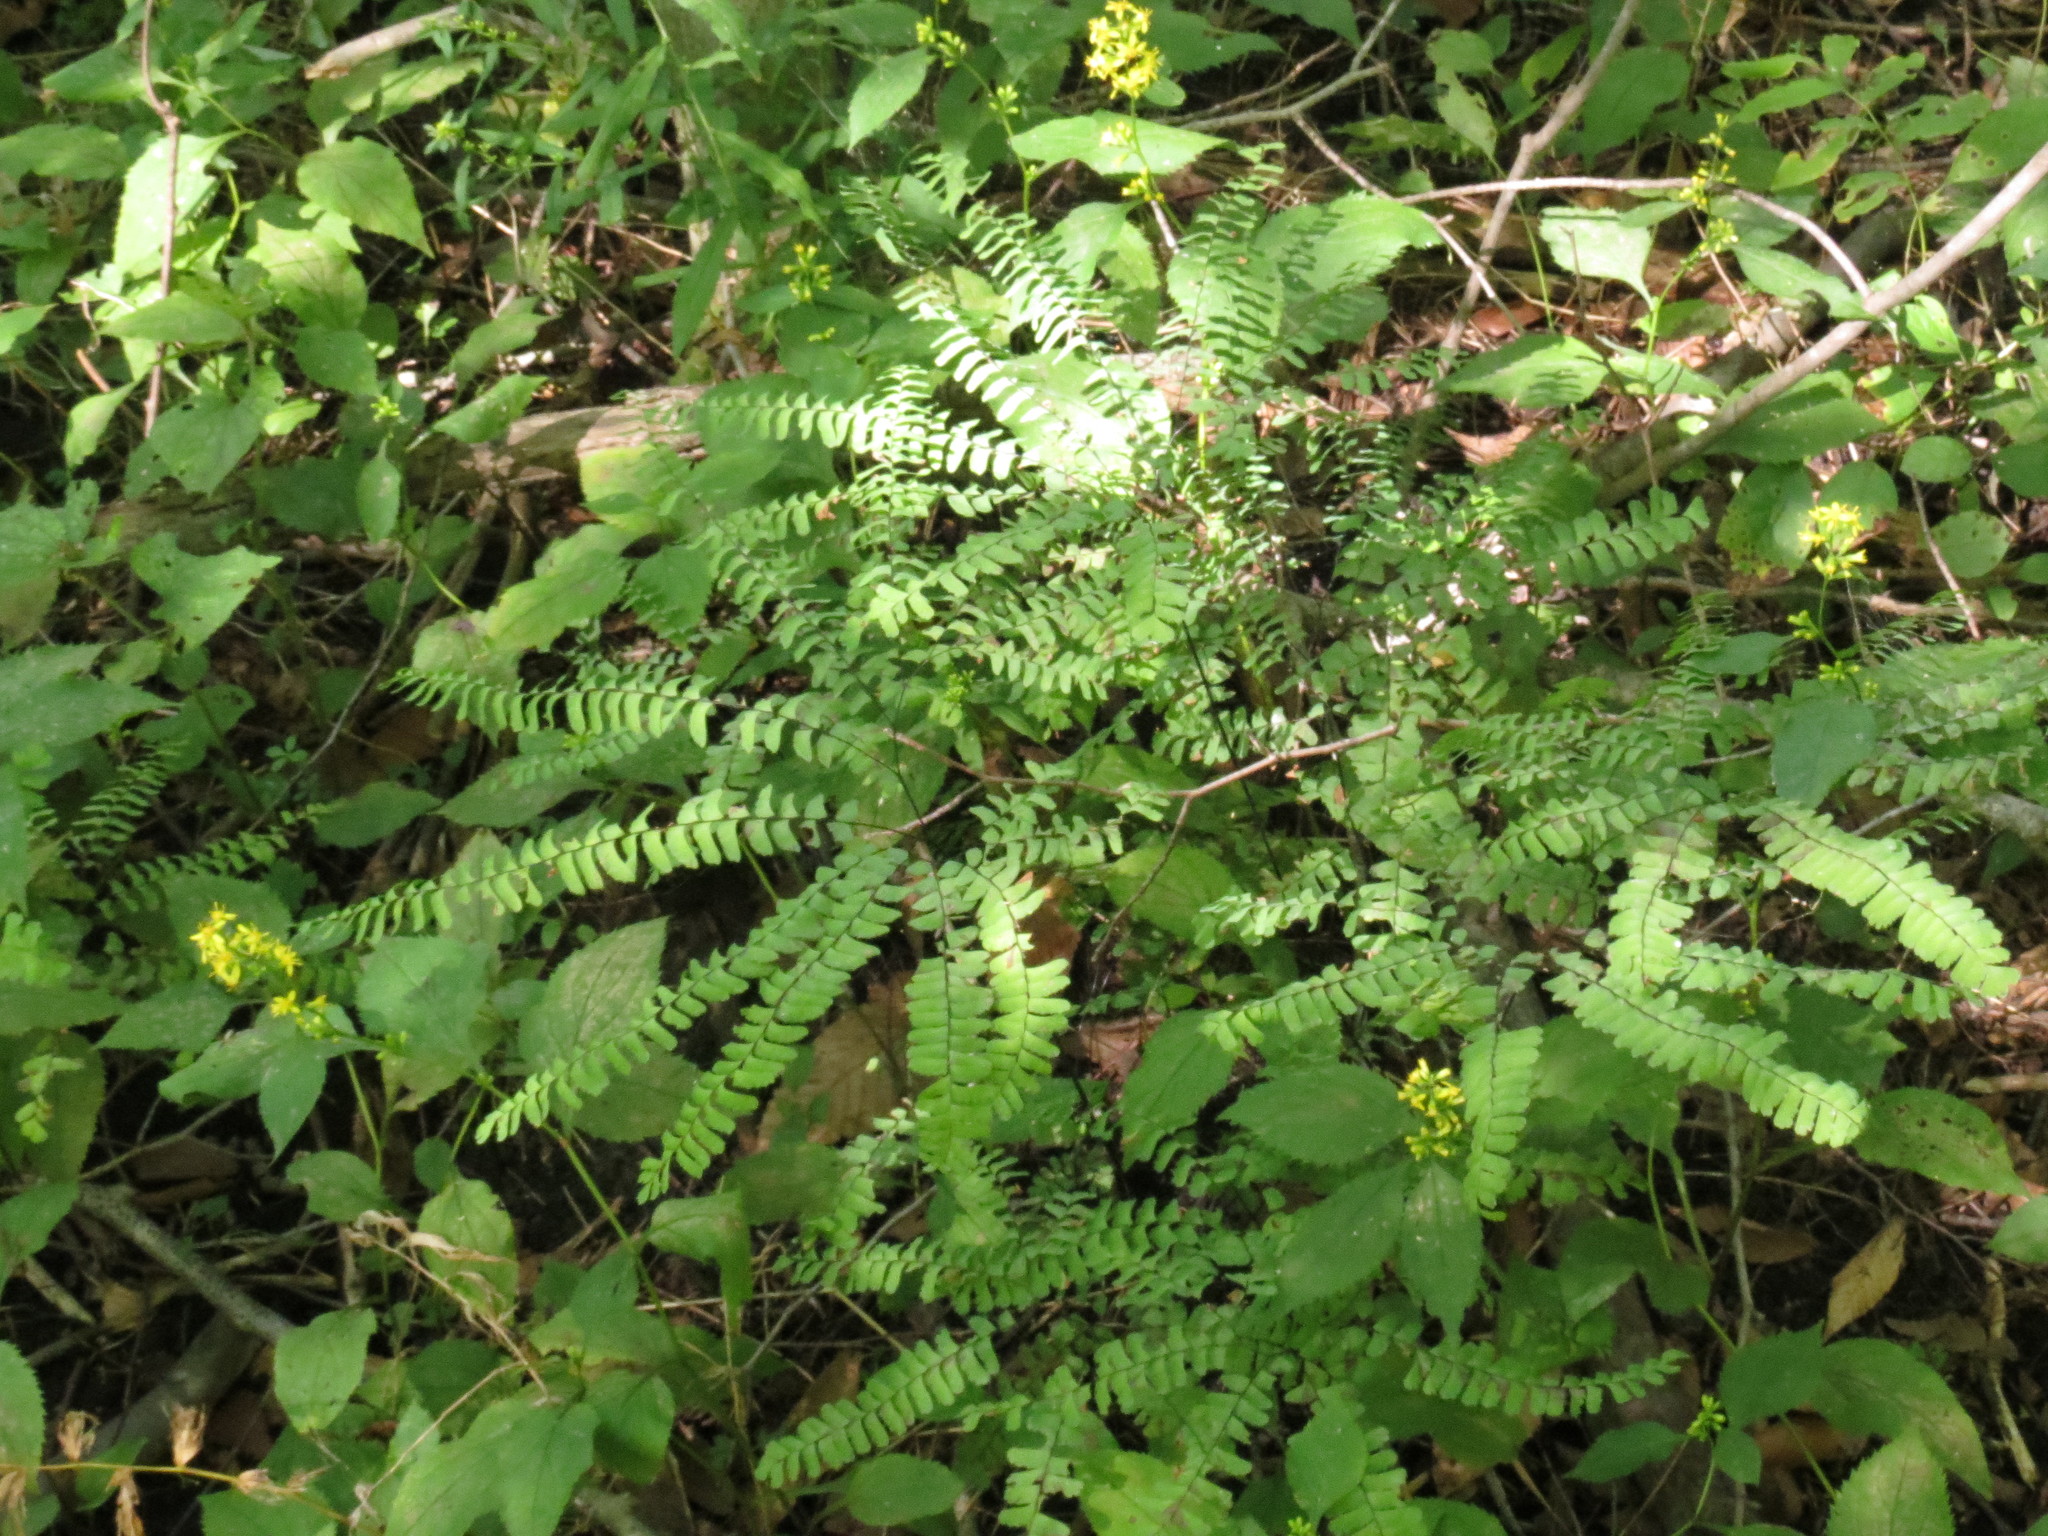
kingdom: Plantae
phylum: Tracheophyta
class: Polypodiopsida
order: Polypodiales
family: Pteridaceae
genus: Adiantum
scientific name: Adiantum pedatum
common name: Five-finger fern
